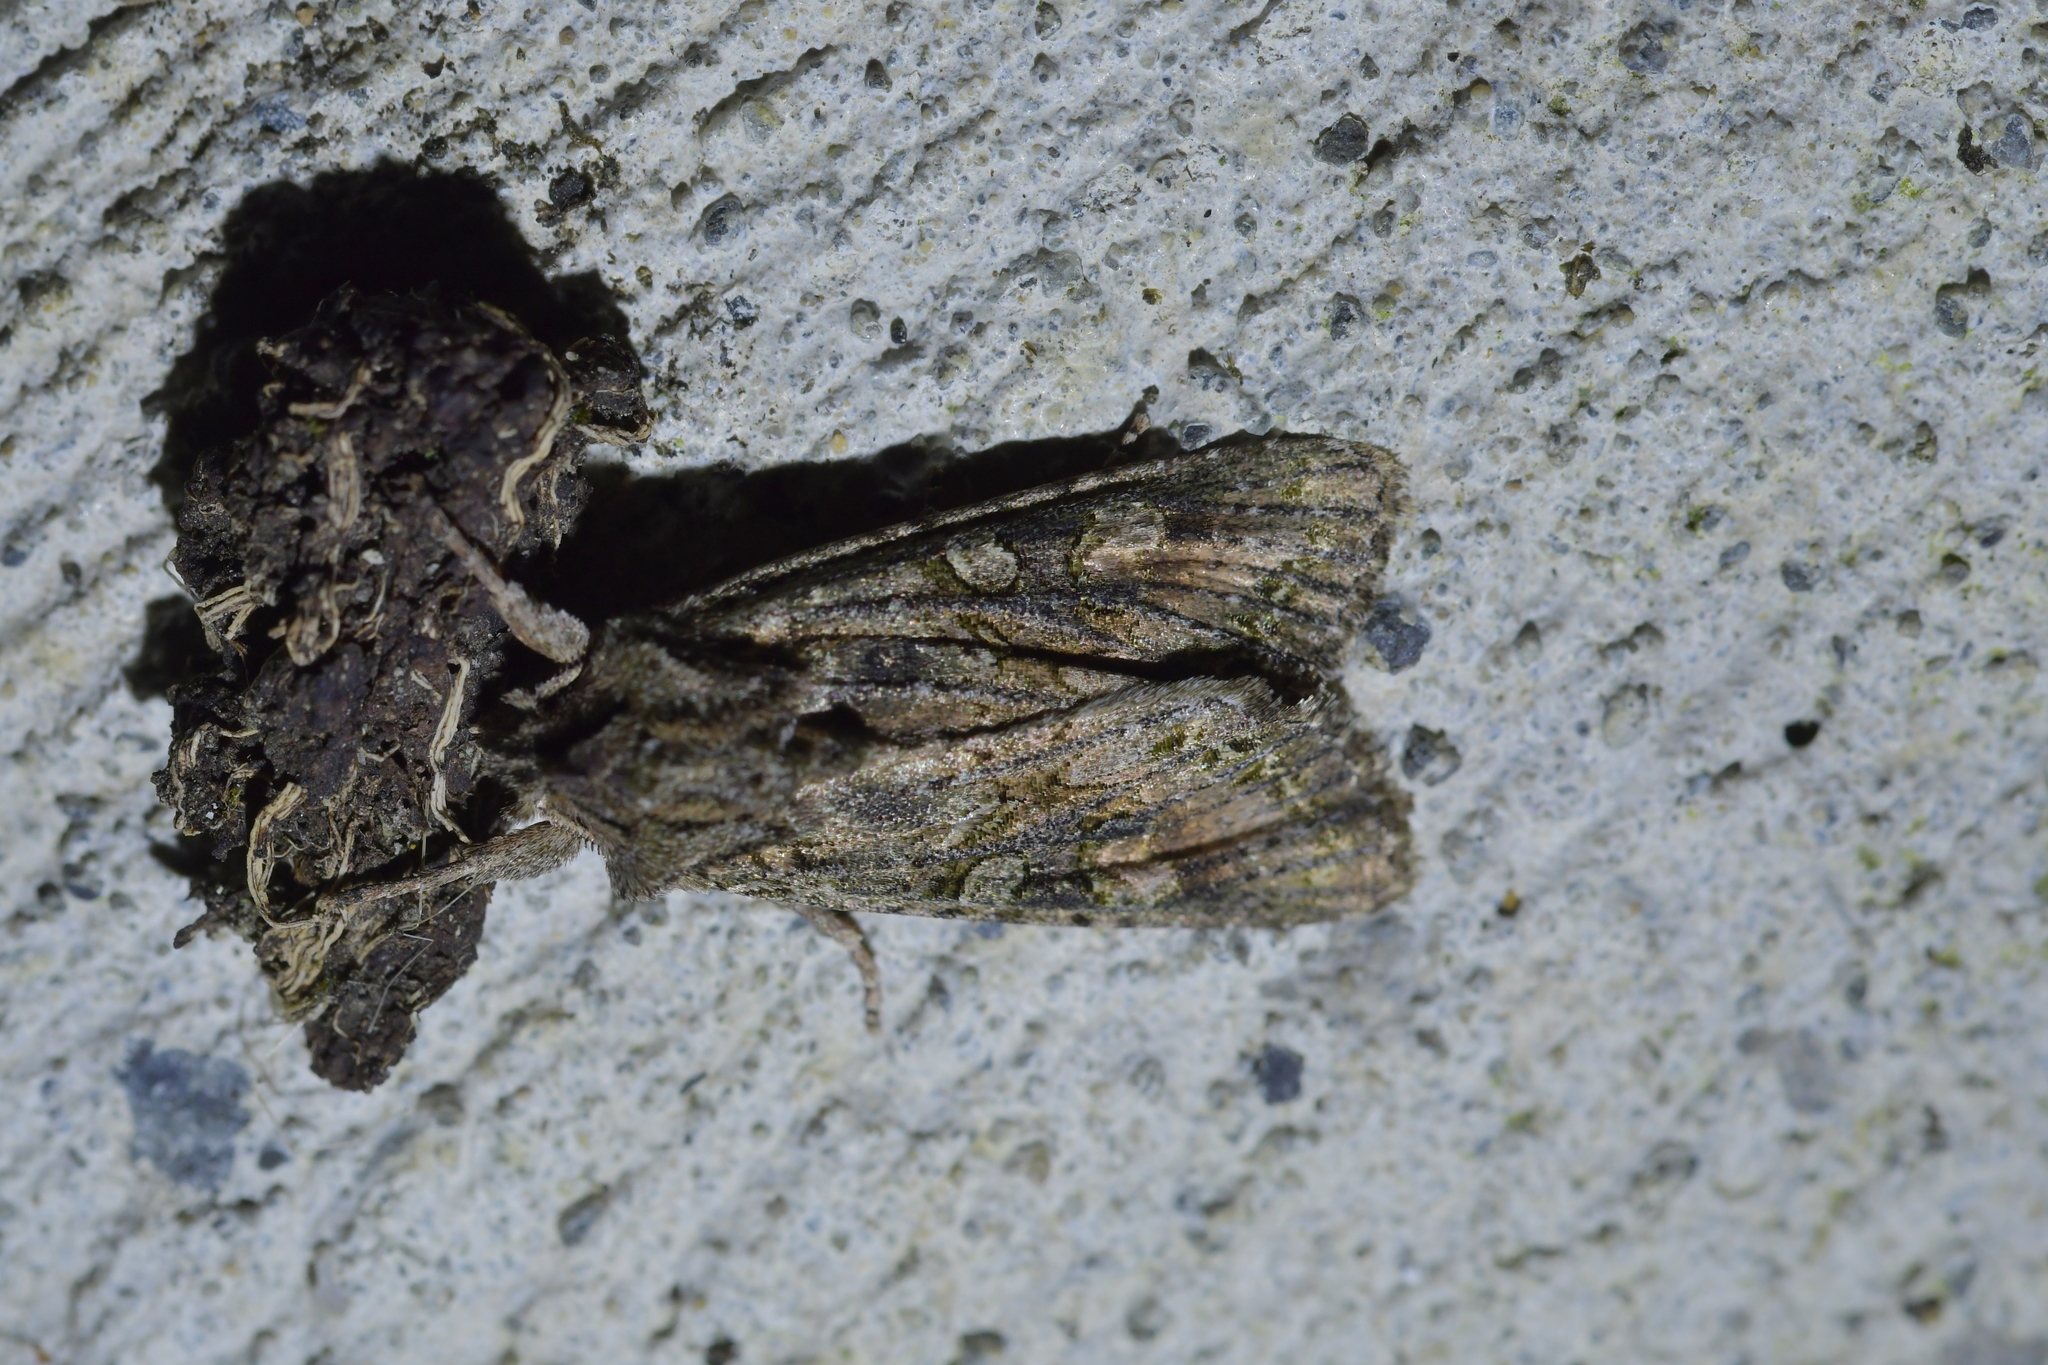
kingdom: Animalia
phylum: Arthropoda
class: Insecta
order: Lepidoptera
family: Noctuidae
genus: Ichneutica
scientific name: Ichneutica mutans
